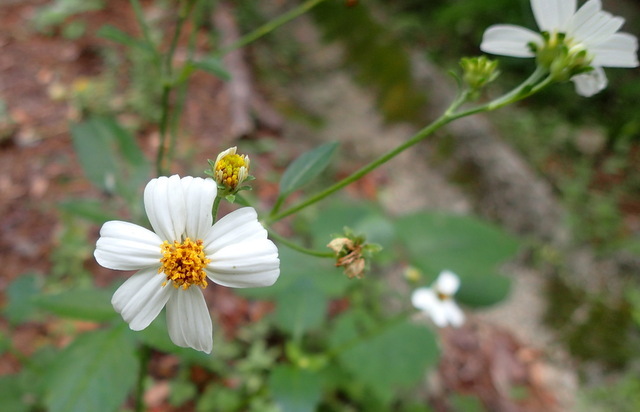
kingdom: Plantae
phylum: Tracheophyta
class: Magnoliopsida
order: Asterales
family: Asteraceae
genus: Bidens
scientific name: Bidens alba
